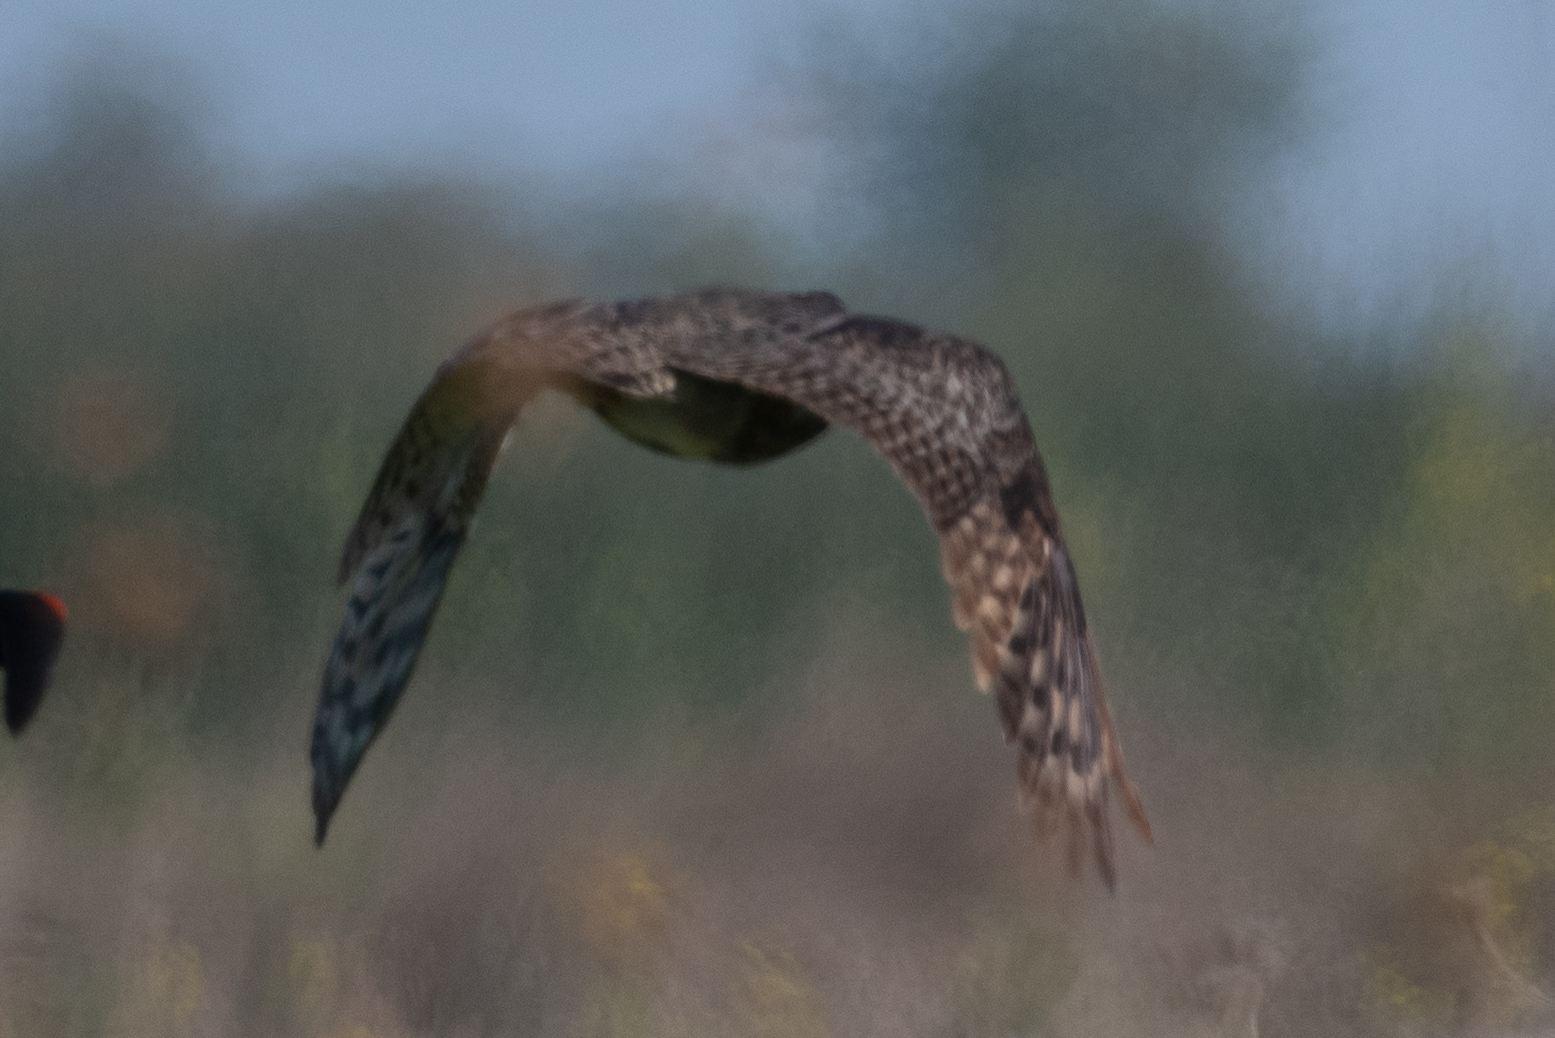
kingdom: Animalia
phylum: Chordata
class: Aves
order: Strigiformes
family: Strigidae
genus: Bubo
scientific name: Bubo virginianus
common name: Great horned owl
